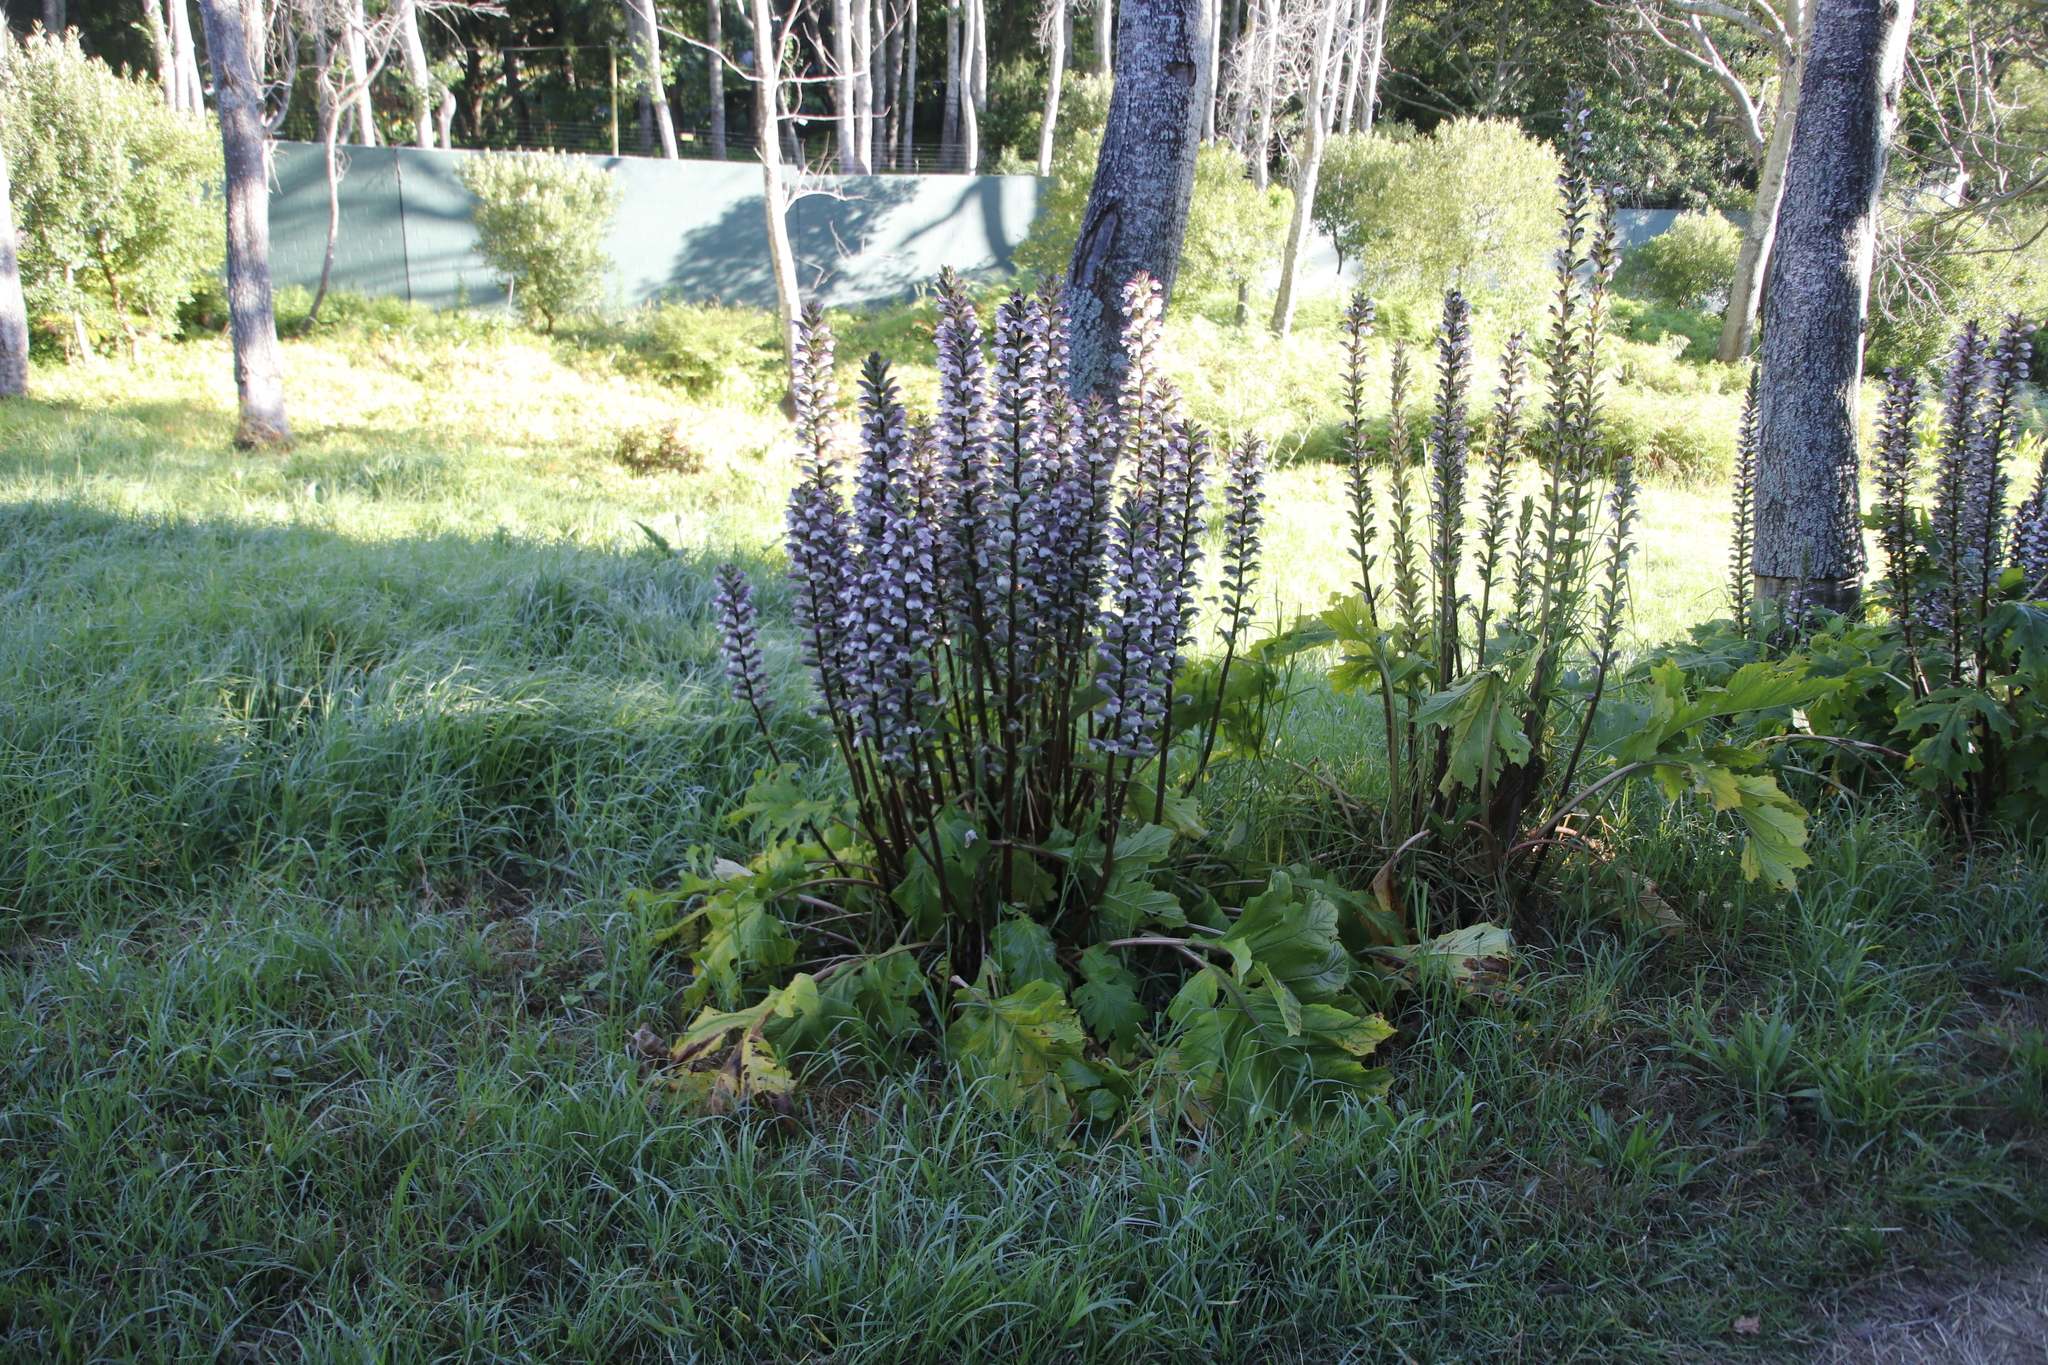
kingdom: Plantae
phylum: Tracheophyta
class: Magnoliopsida
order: Lamiales
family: Acanthaceae
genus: Acanthus
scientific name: Acanthus mollis
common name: Bear's-breech
